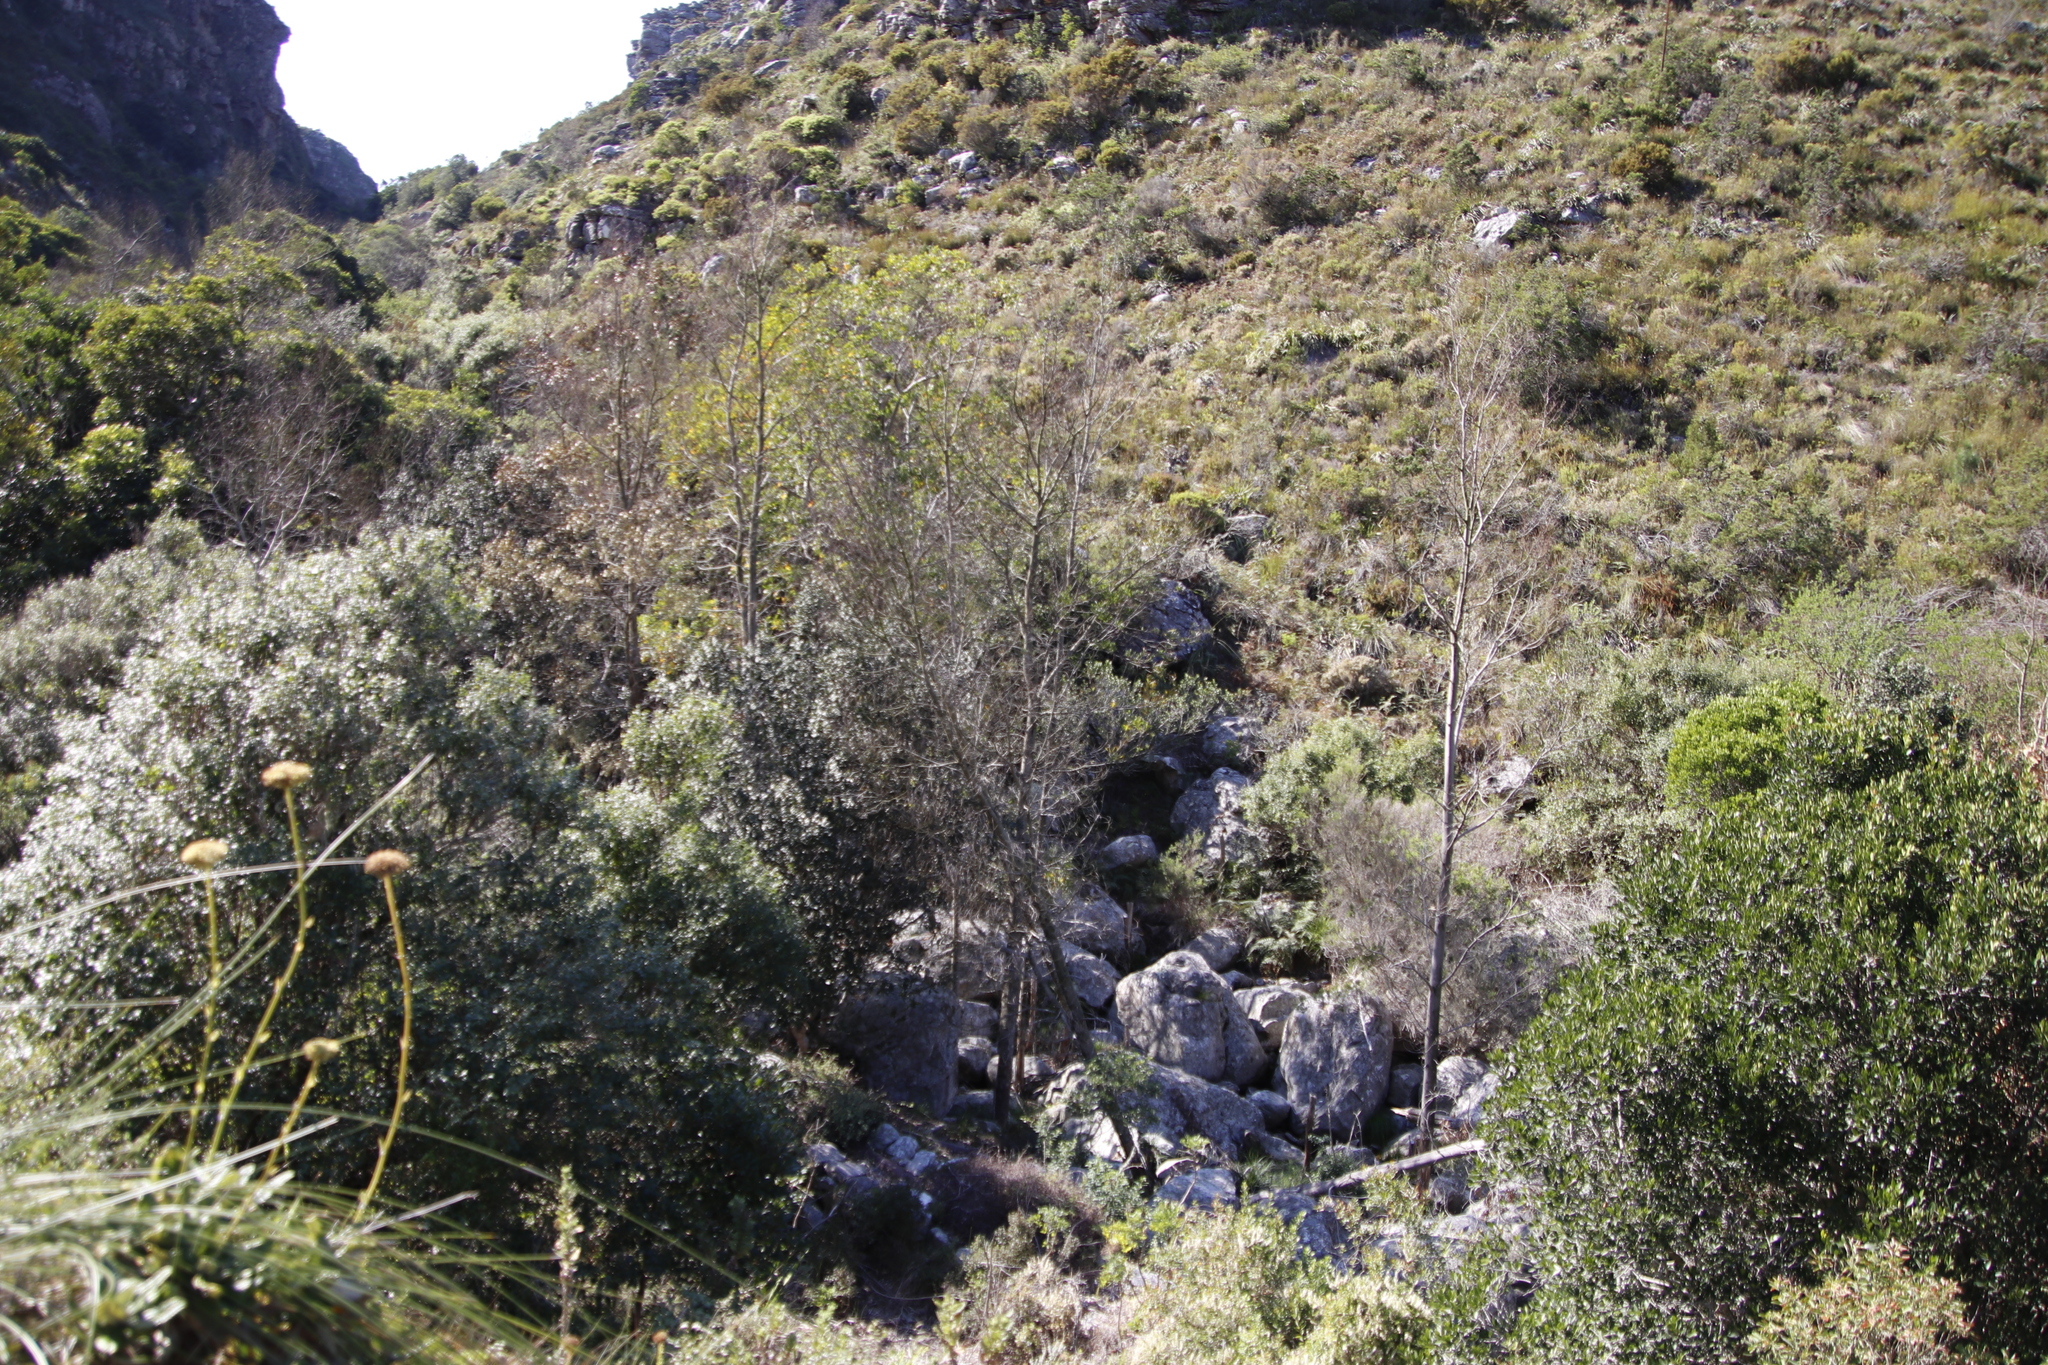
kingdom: Plantae
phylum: Tracheophyta
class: Magnoliopsida
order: Fabales
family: Fabaceae
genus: Acacia
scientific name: Acacia melanoxylon
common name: Blackwood
